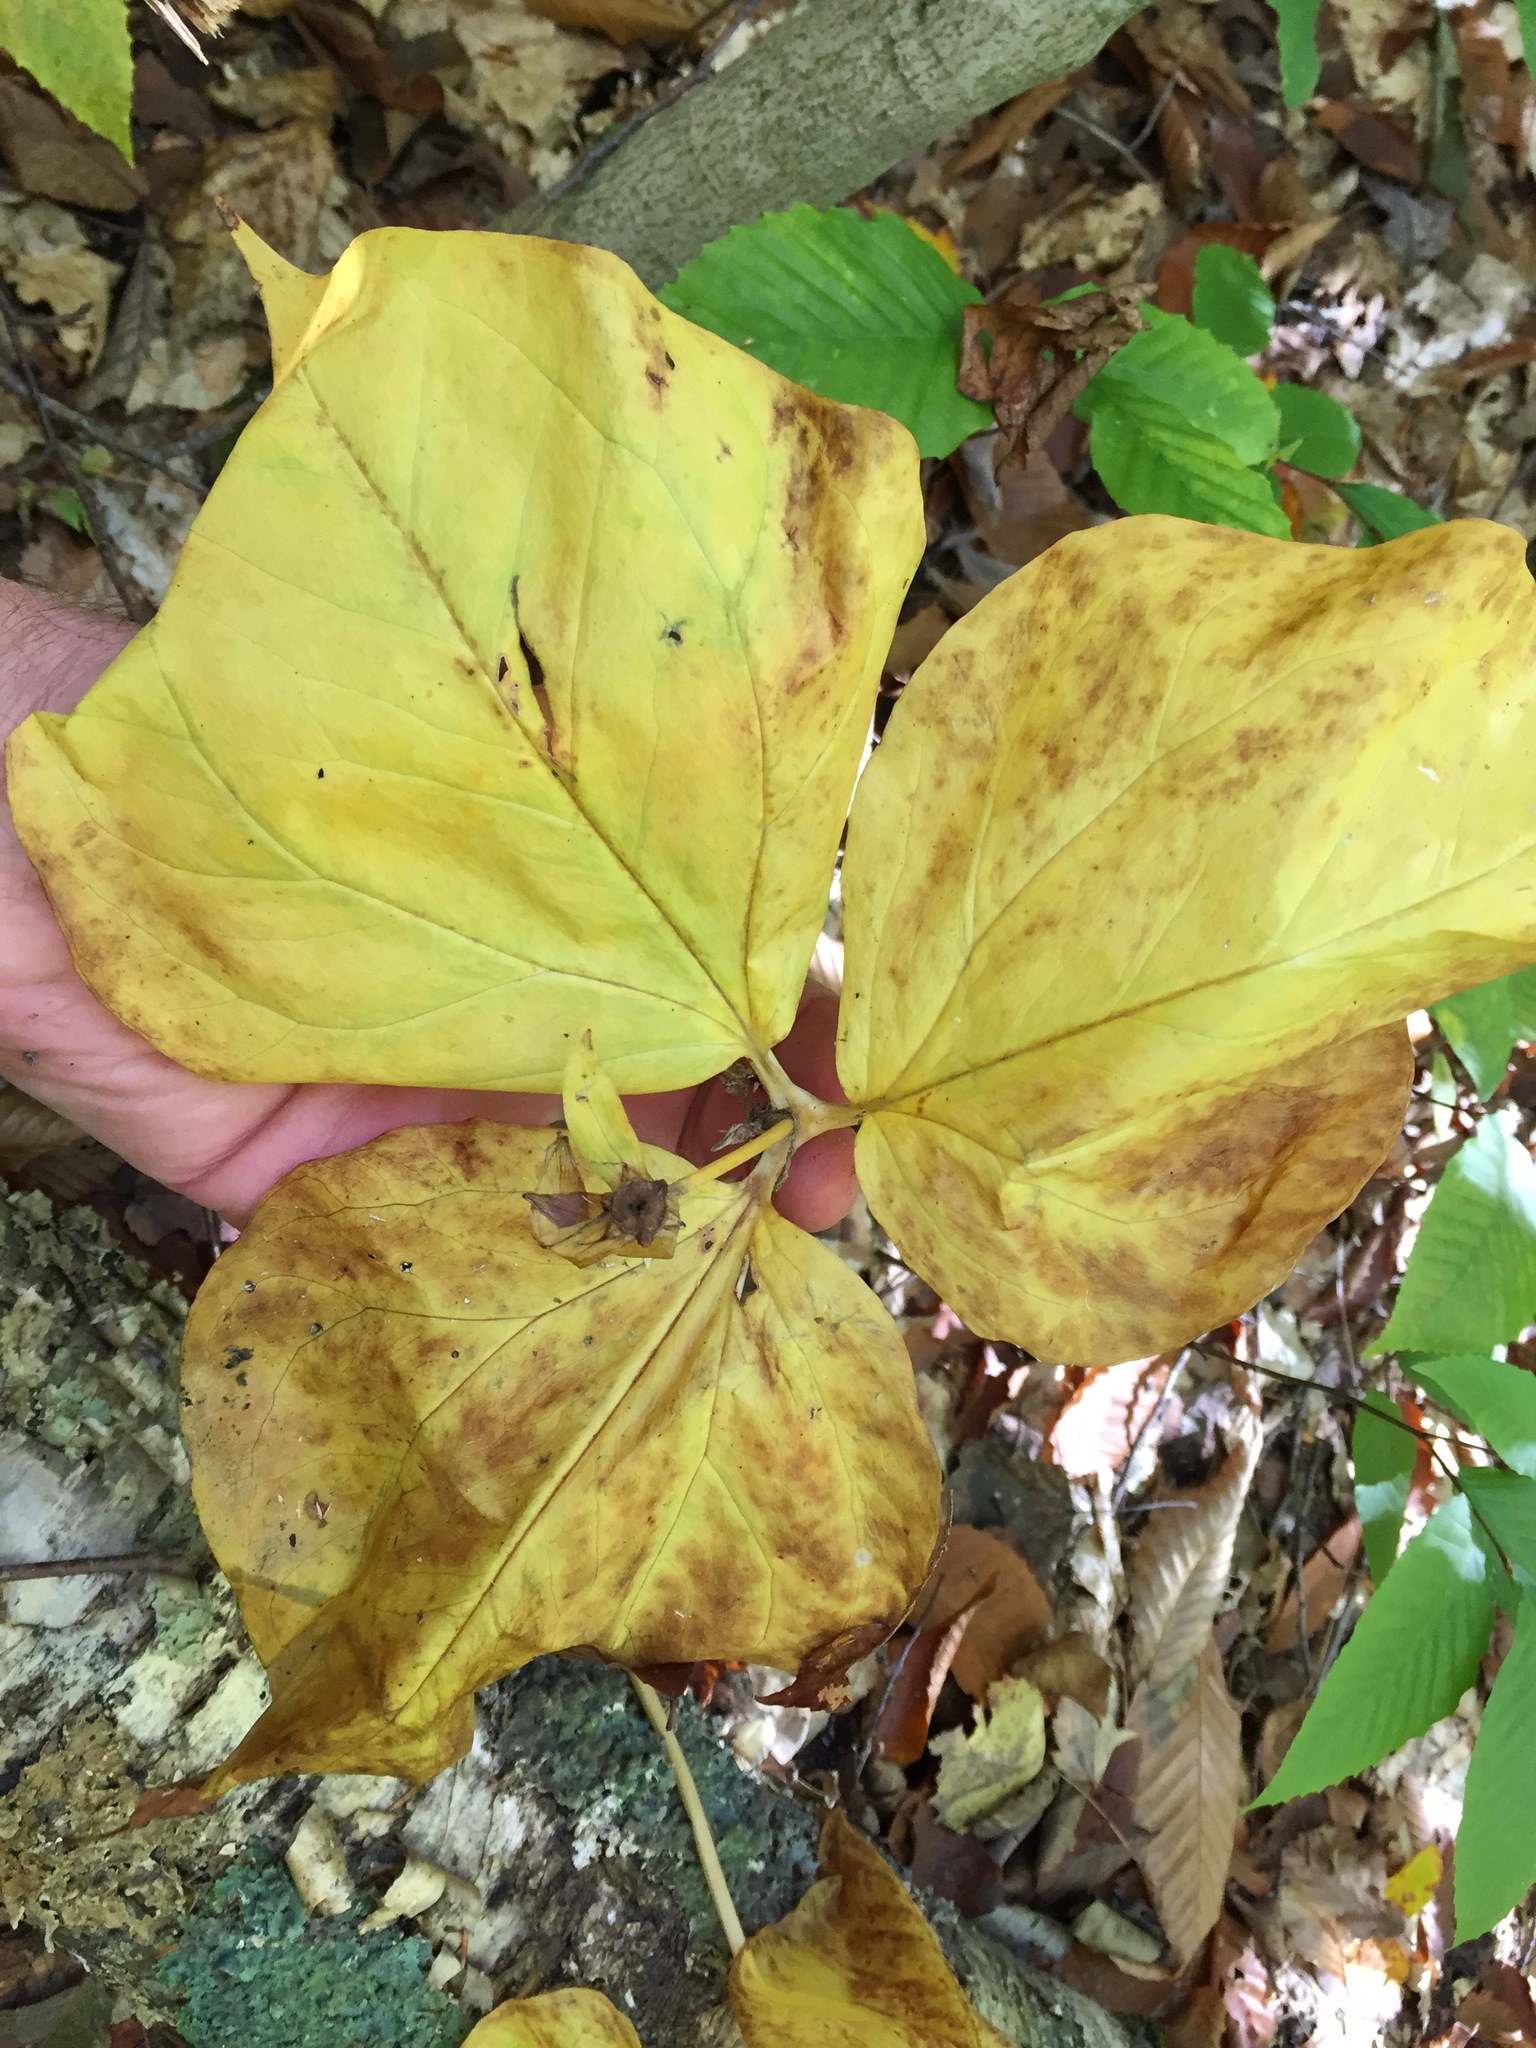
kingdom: Plantae
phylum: Tracheophyta
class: Liliopsida
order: Liliales
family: Melanthiaceae
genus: Trillium
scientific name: Trillium undulatum
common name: Paint trillium
